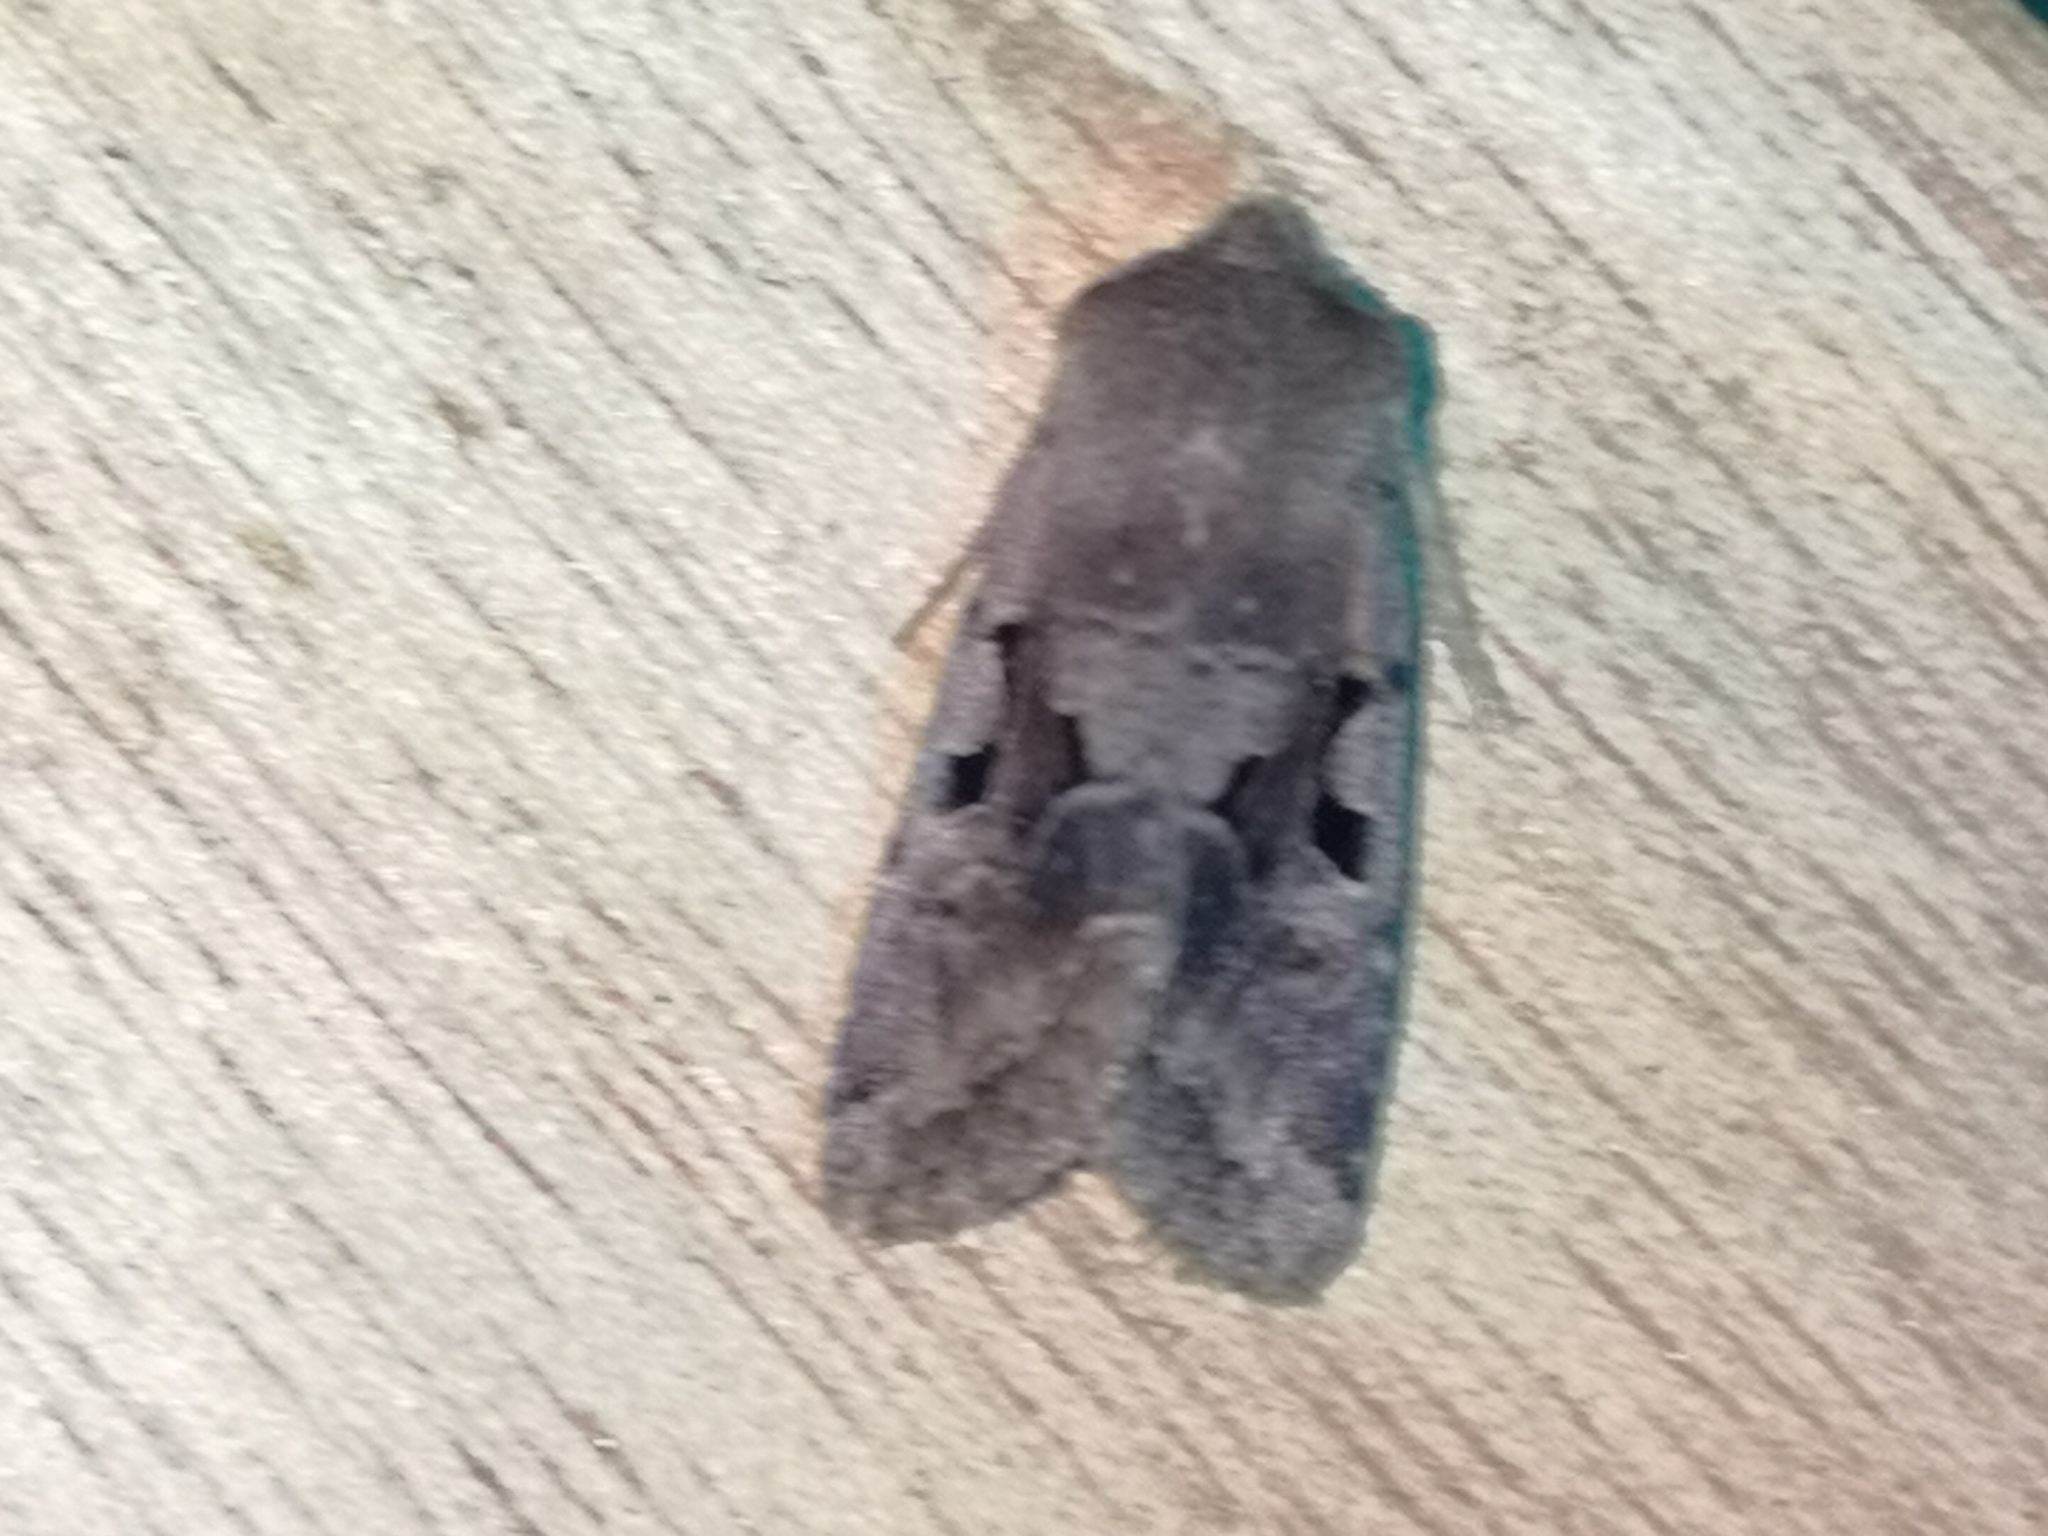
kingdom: Animalia
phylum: Arthropoda
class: Insecta
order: Lepidoptera
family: Noctuidae
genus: Orthosia
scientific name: Orthosia gothica
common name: Hebrew character
